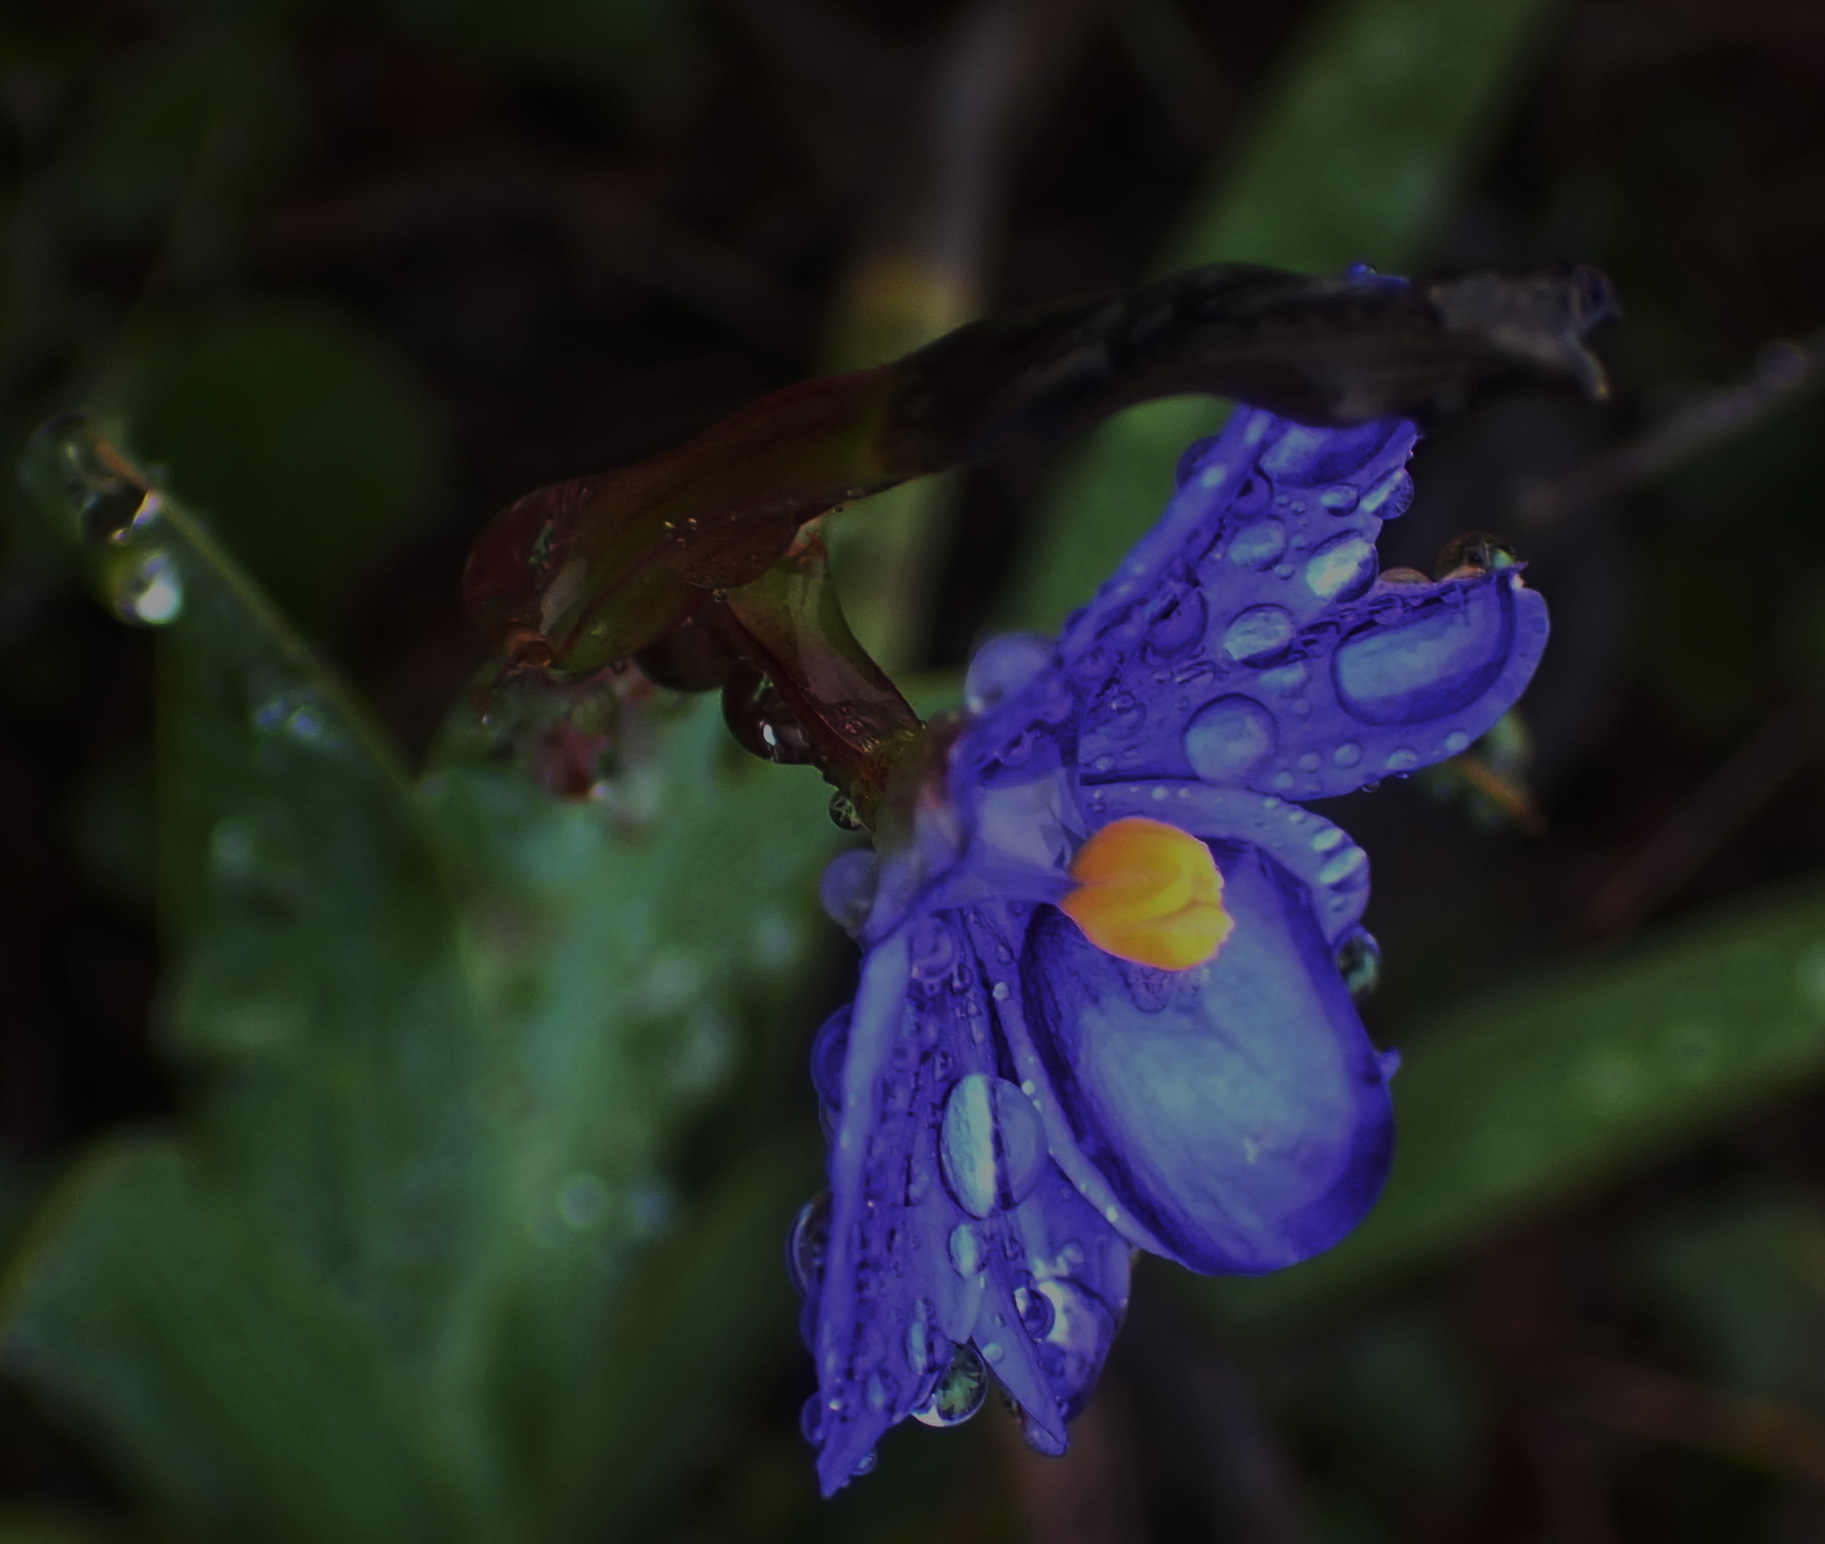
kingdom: Plantae
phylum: Tracheophyta
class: Liliopsida
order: Asparagales
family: Iridaceae
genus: Aristea
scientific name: Aristea pusilla
